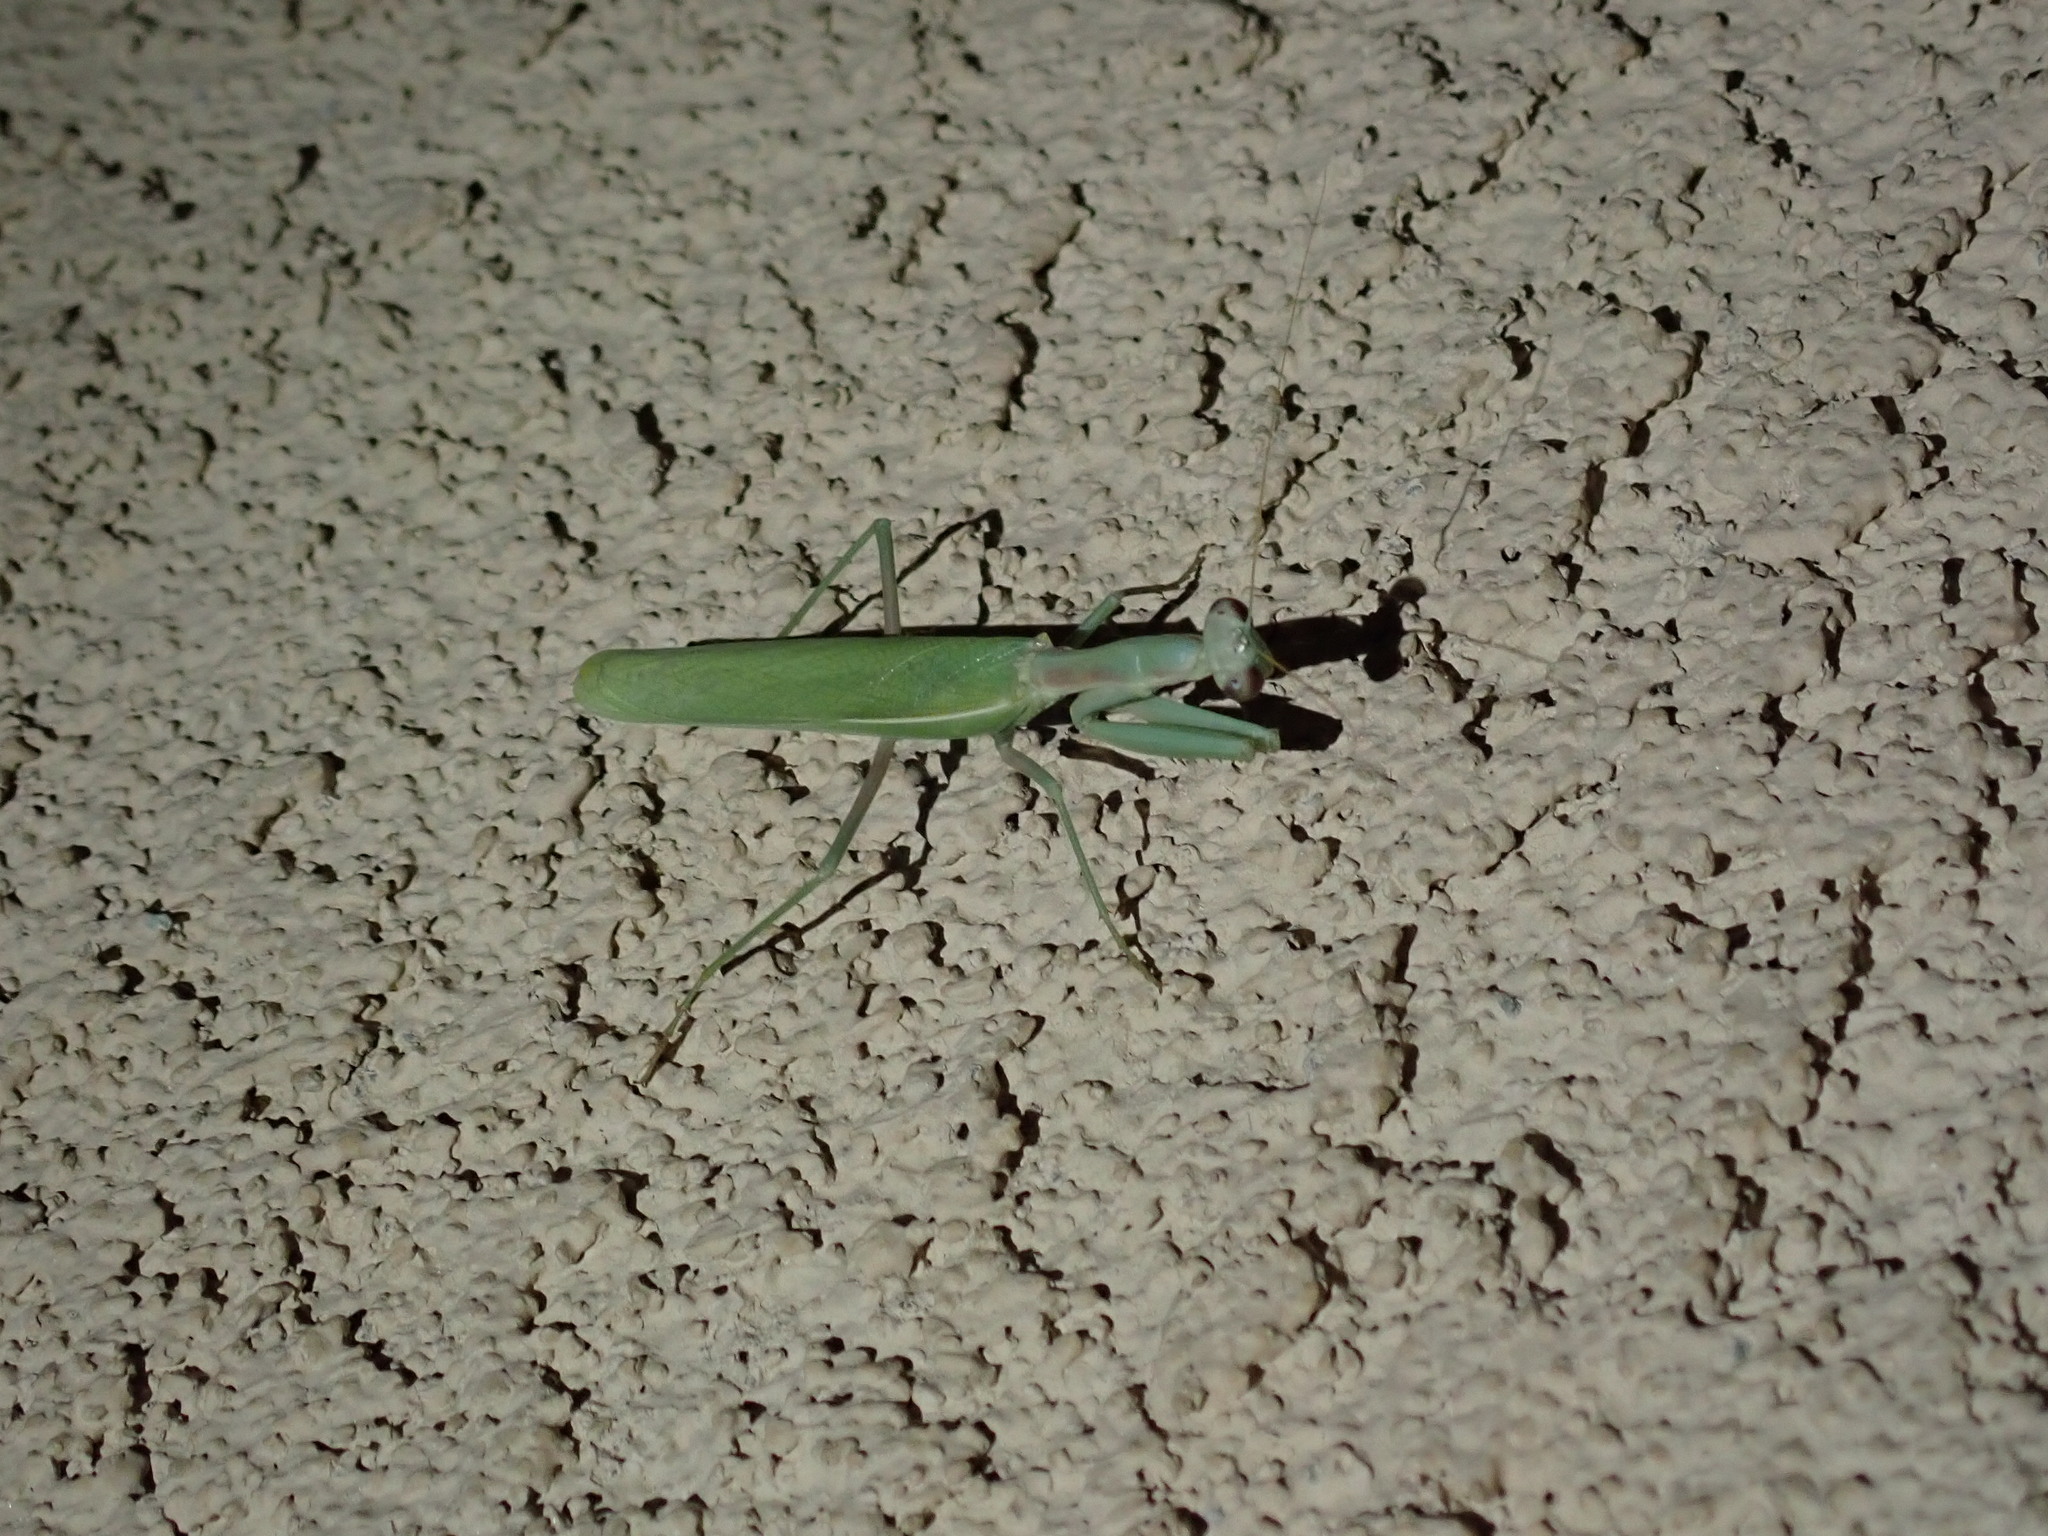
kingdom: Animalia
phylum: Arthropoda
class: Insecta
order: Mantodea
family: Eremiaphilidae
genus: Iris
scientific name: Iris oratoria
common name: Mediterranean mantis
